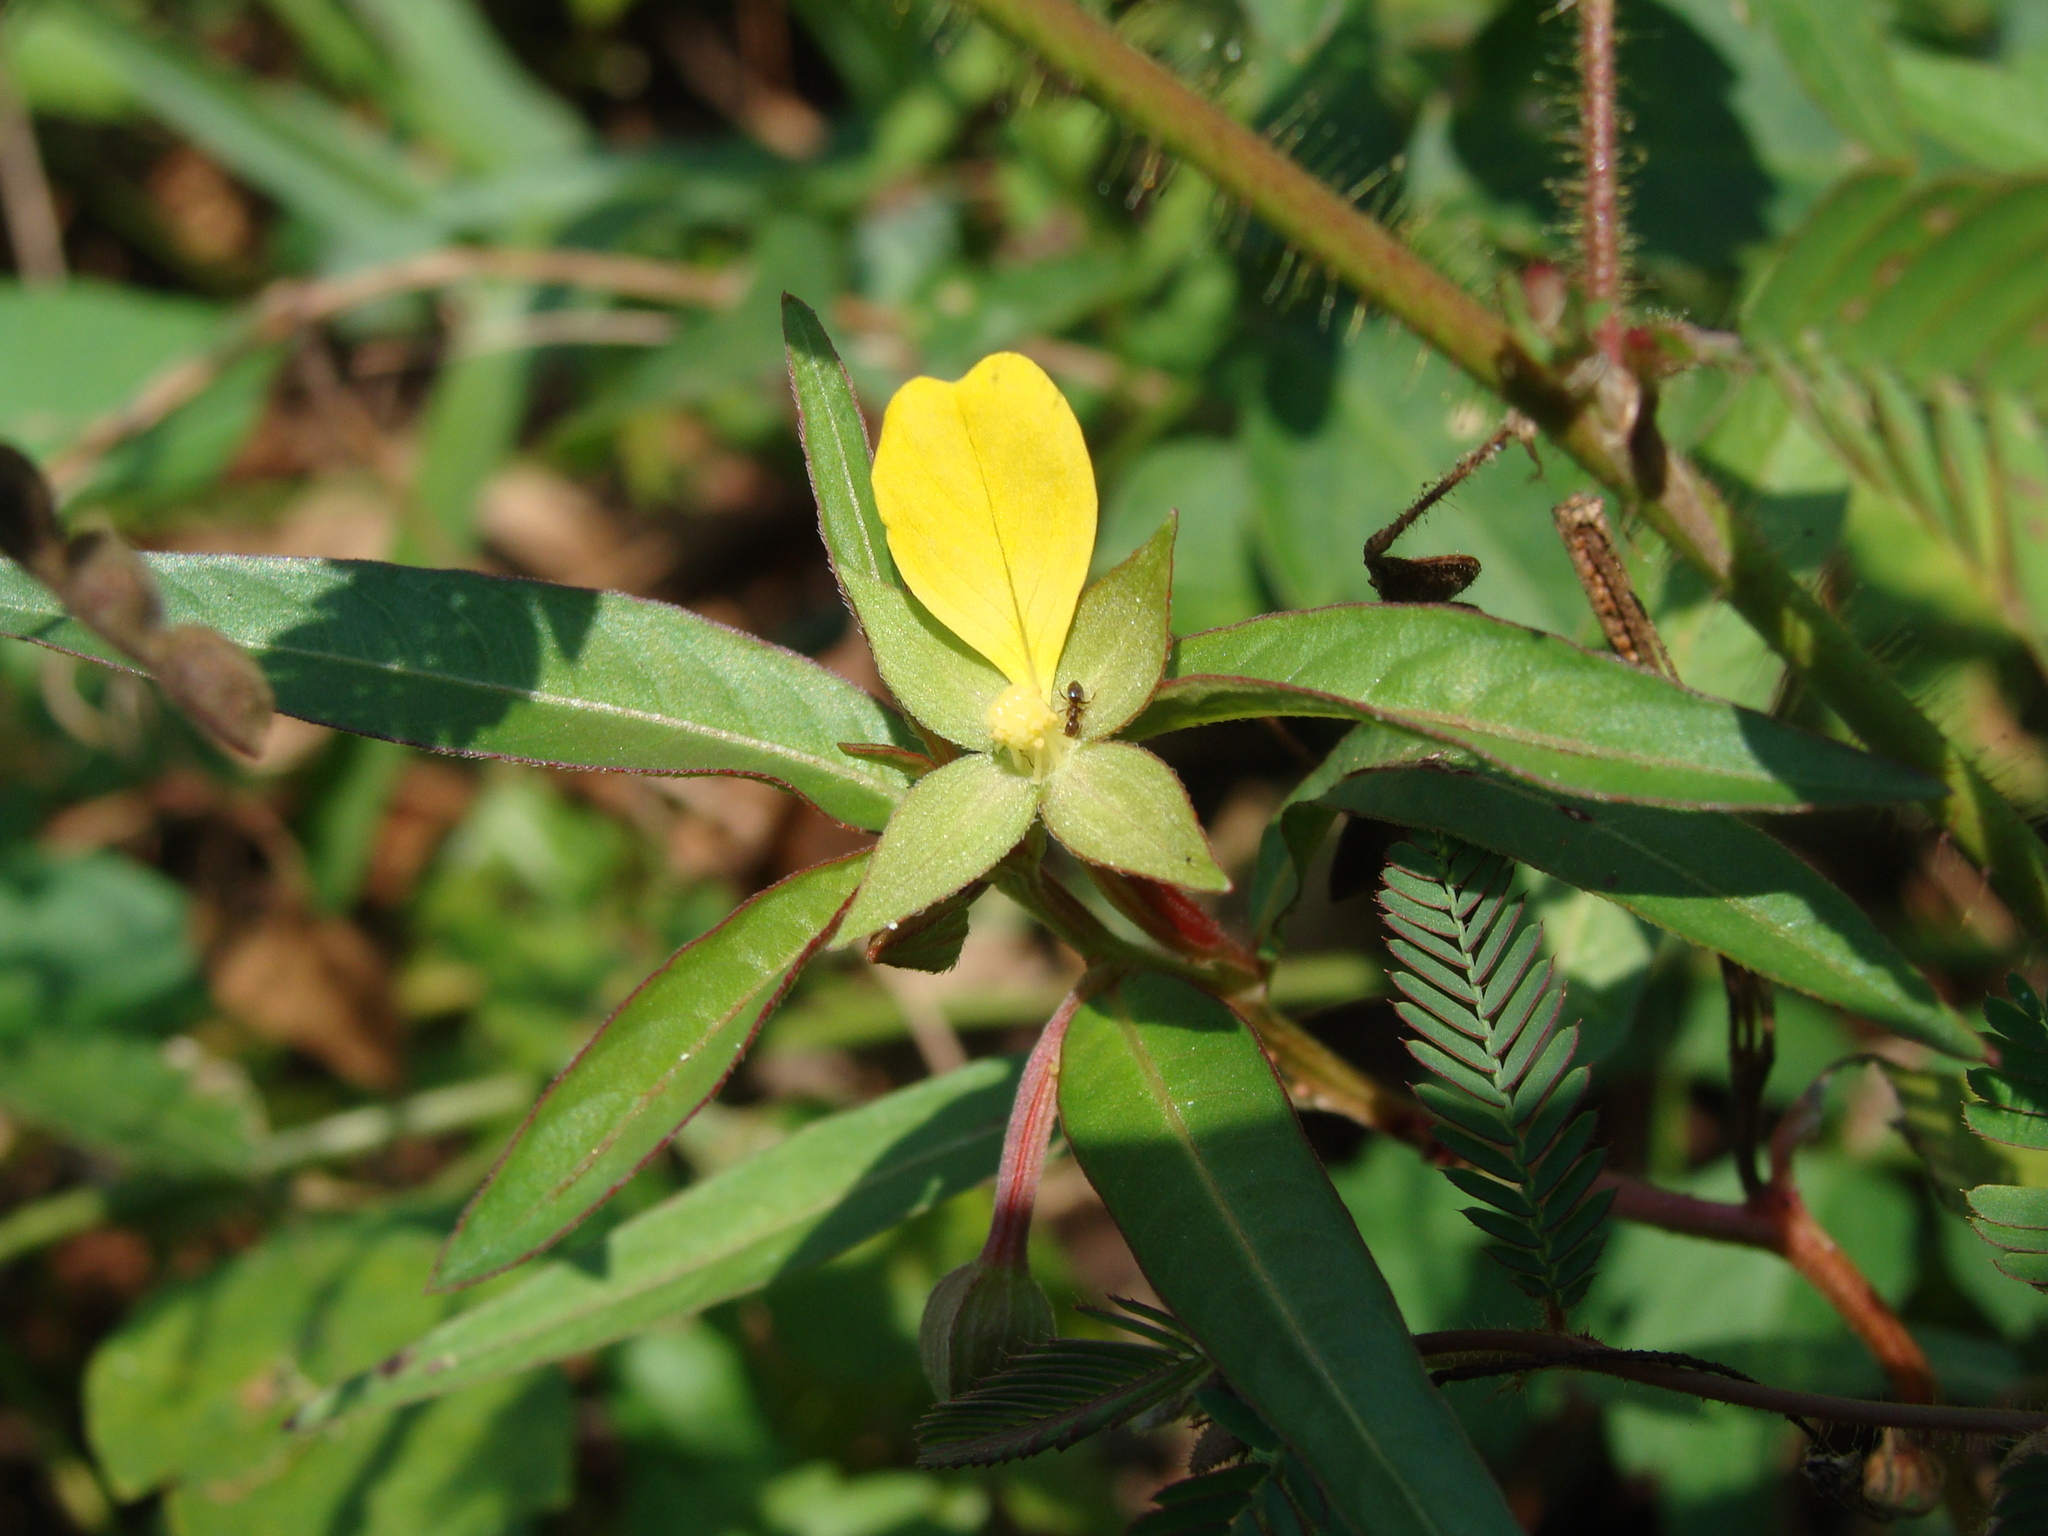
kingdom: Plantae
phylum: Tracheophyta
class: Magnoliopsida
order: Myrtales
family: Onagraceae
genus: Ludwigia
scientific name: Ludwigia octovalvis
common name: Water-primrose
